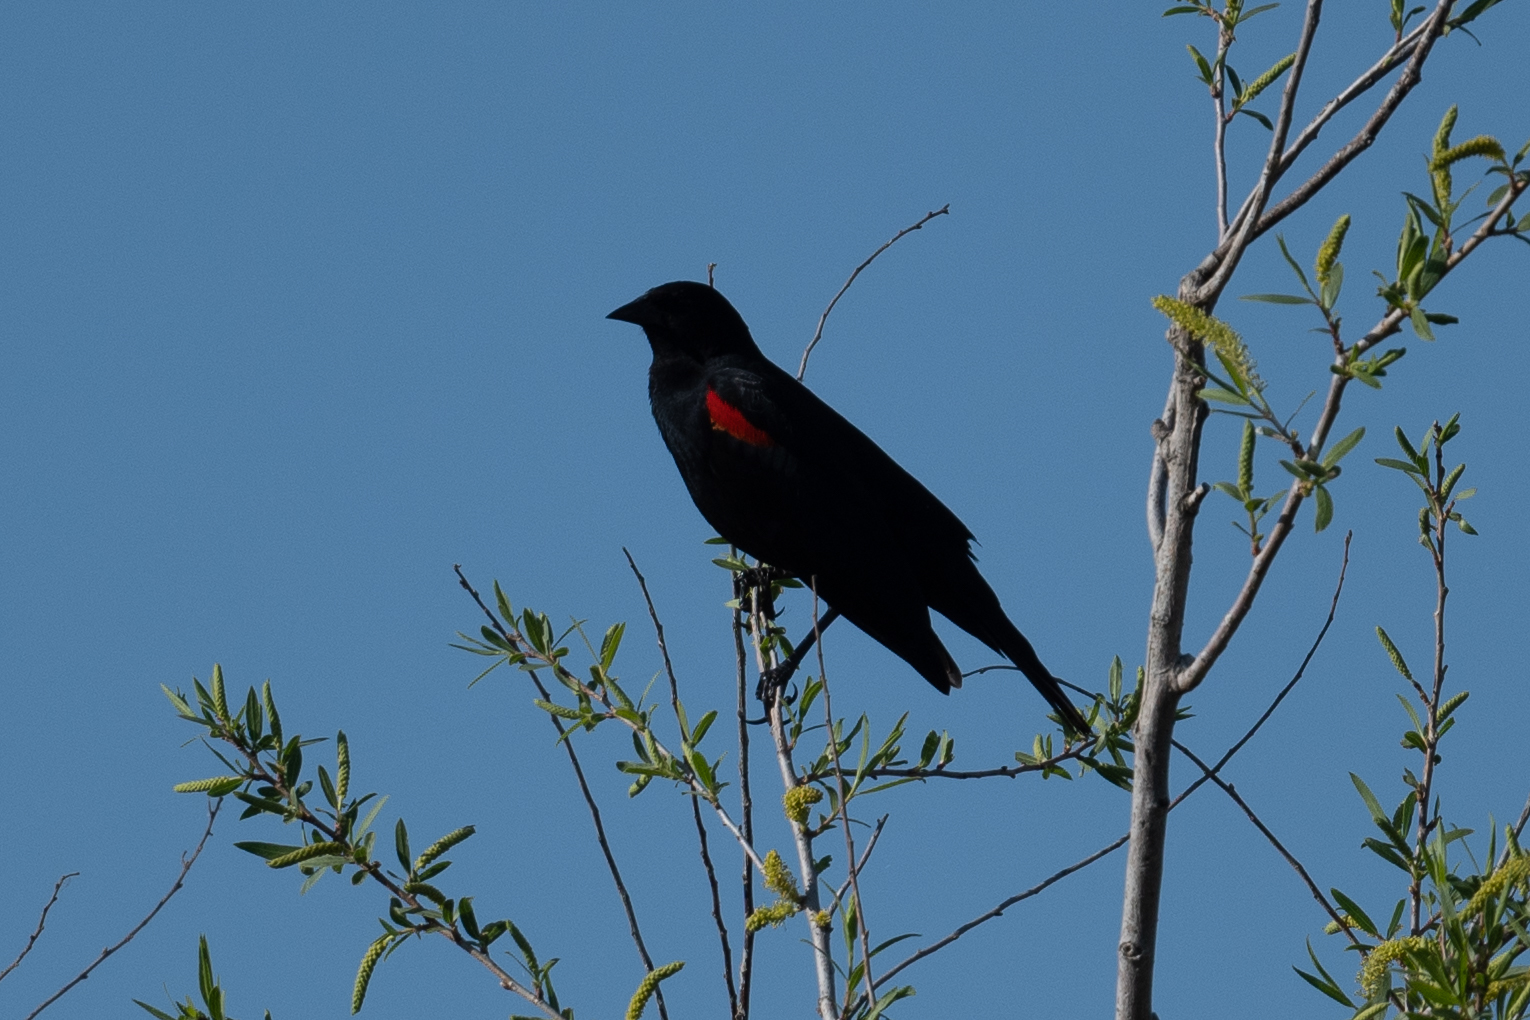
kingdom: Animalia
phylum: Chordata
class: Aves
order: Passeriformes
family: Icteridae
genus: Agelaius
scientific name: Agelaius phoeniceus
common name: Red-winged blackbird
